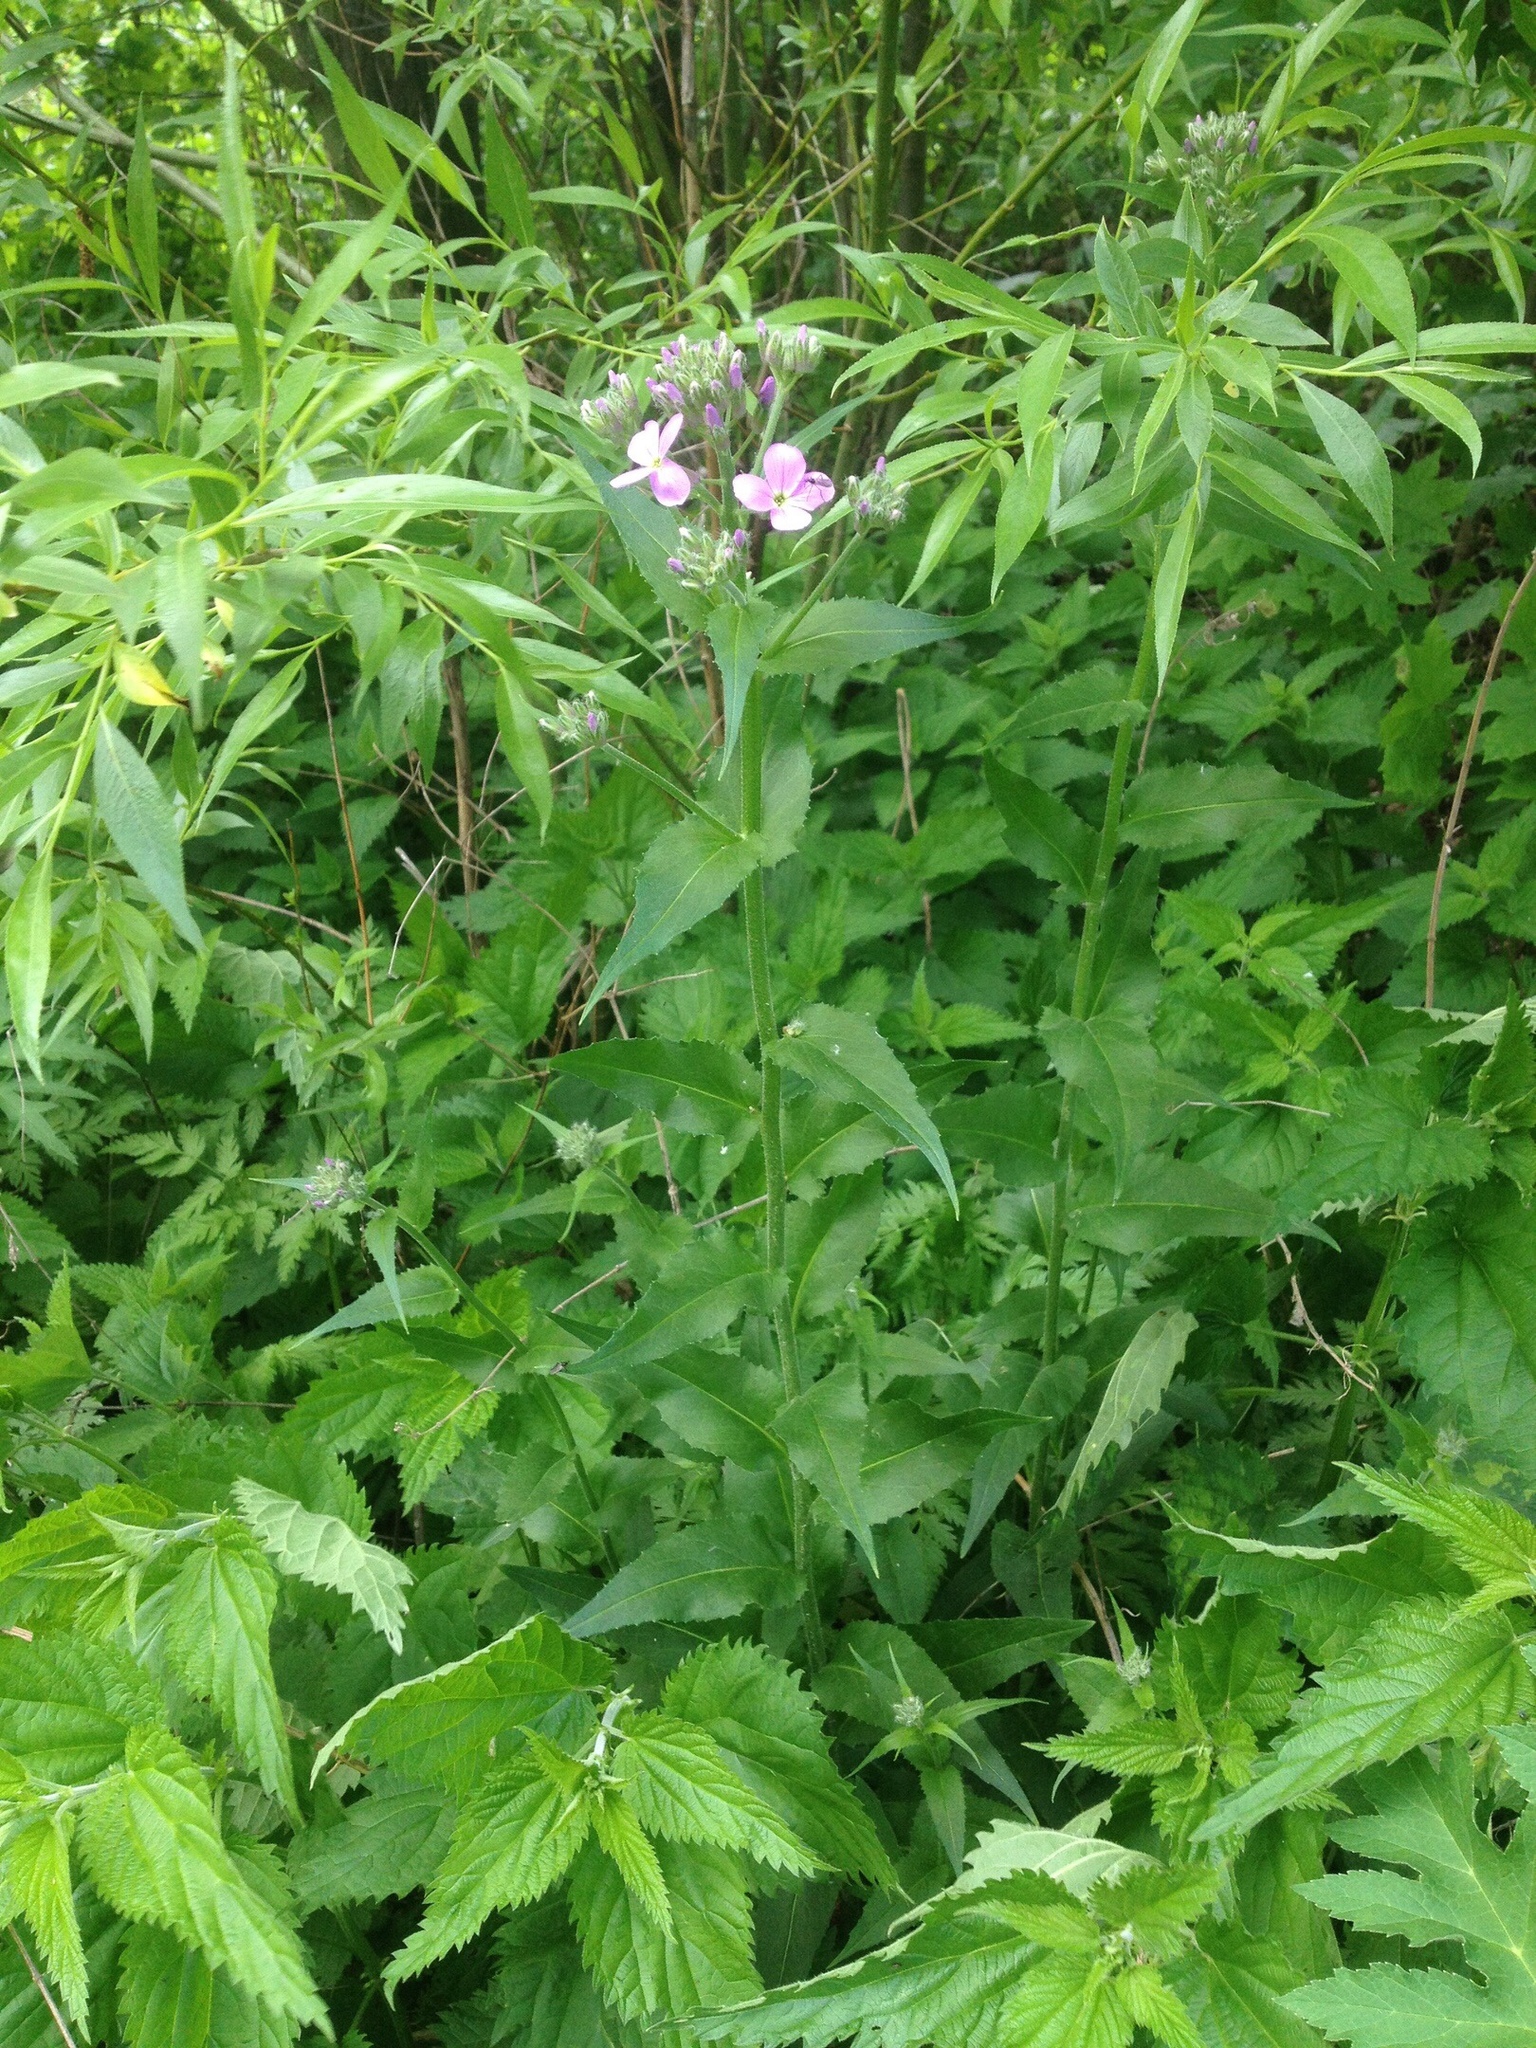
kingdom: Plantae
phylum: Tracheophyta
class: Magnoliopsida
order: Brassicales
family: Brassicaceae
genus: Hesperis
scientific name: Hesperis matronalis
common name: Dame's-violet
